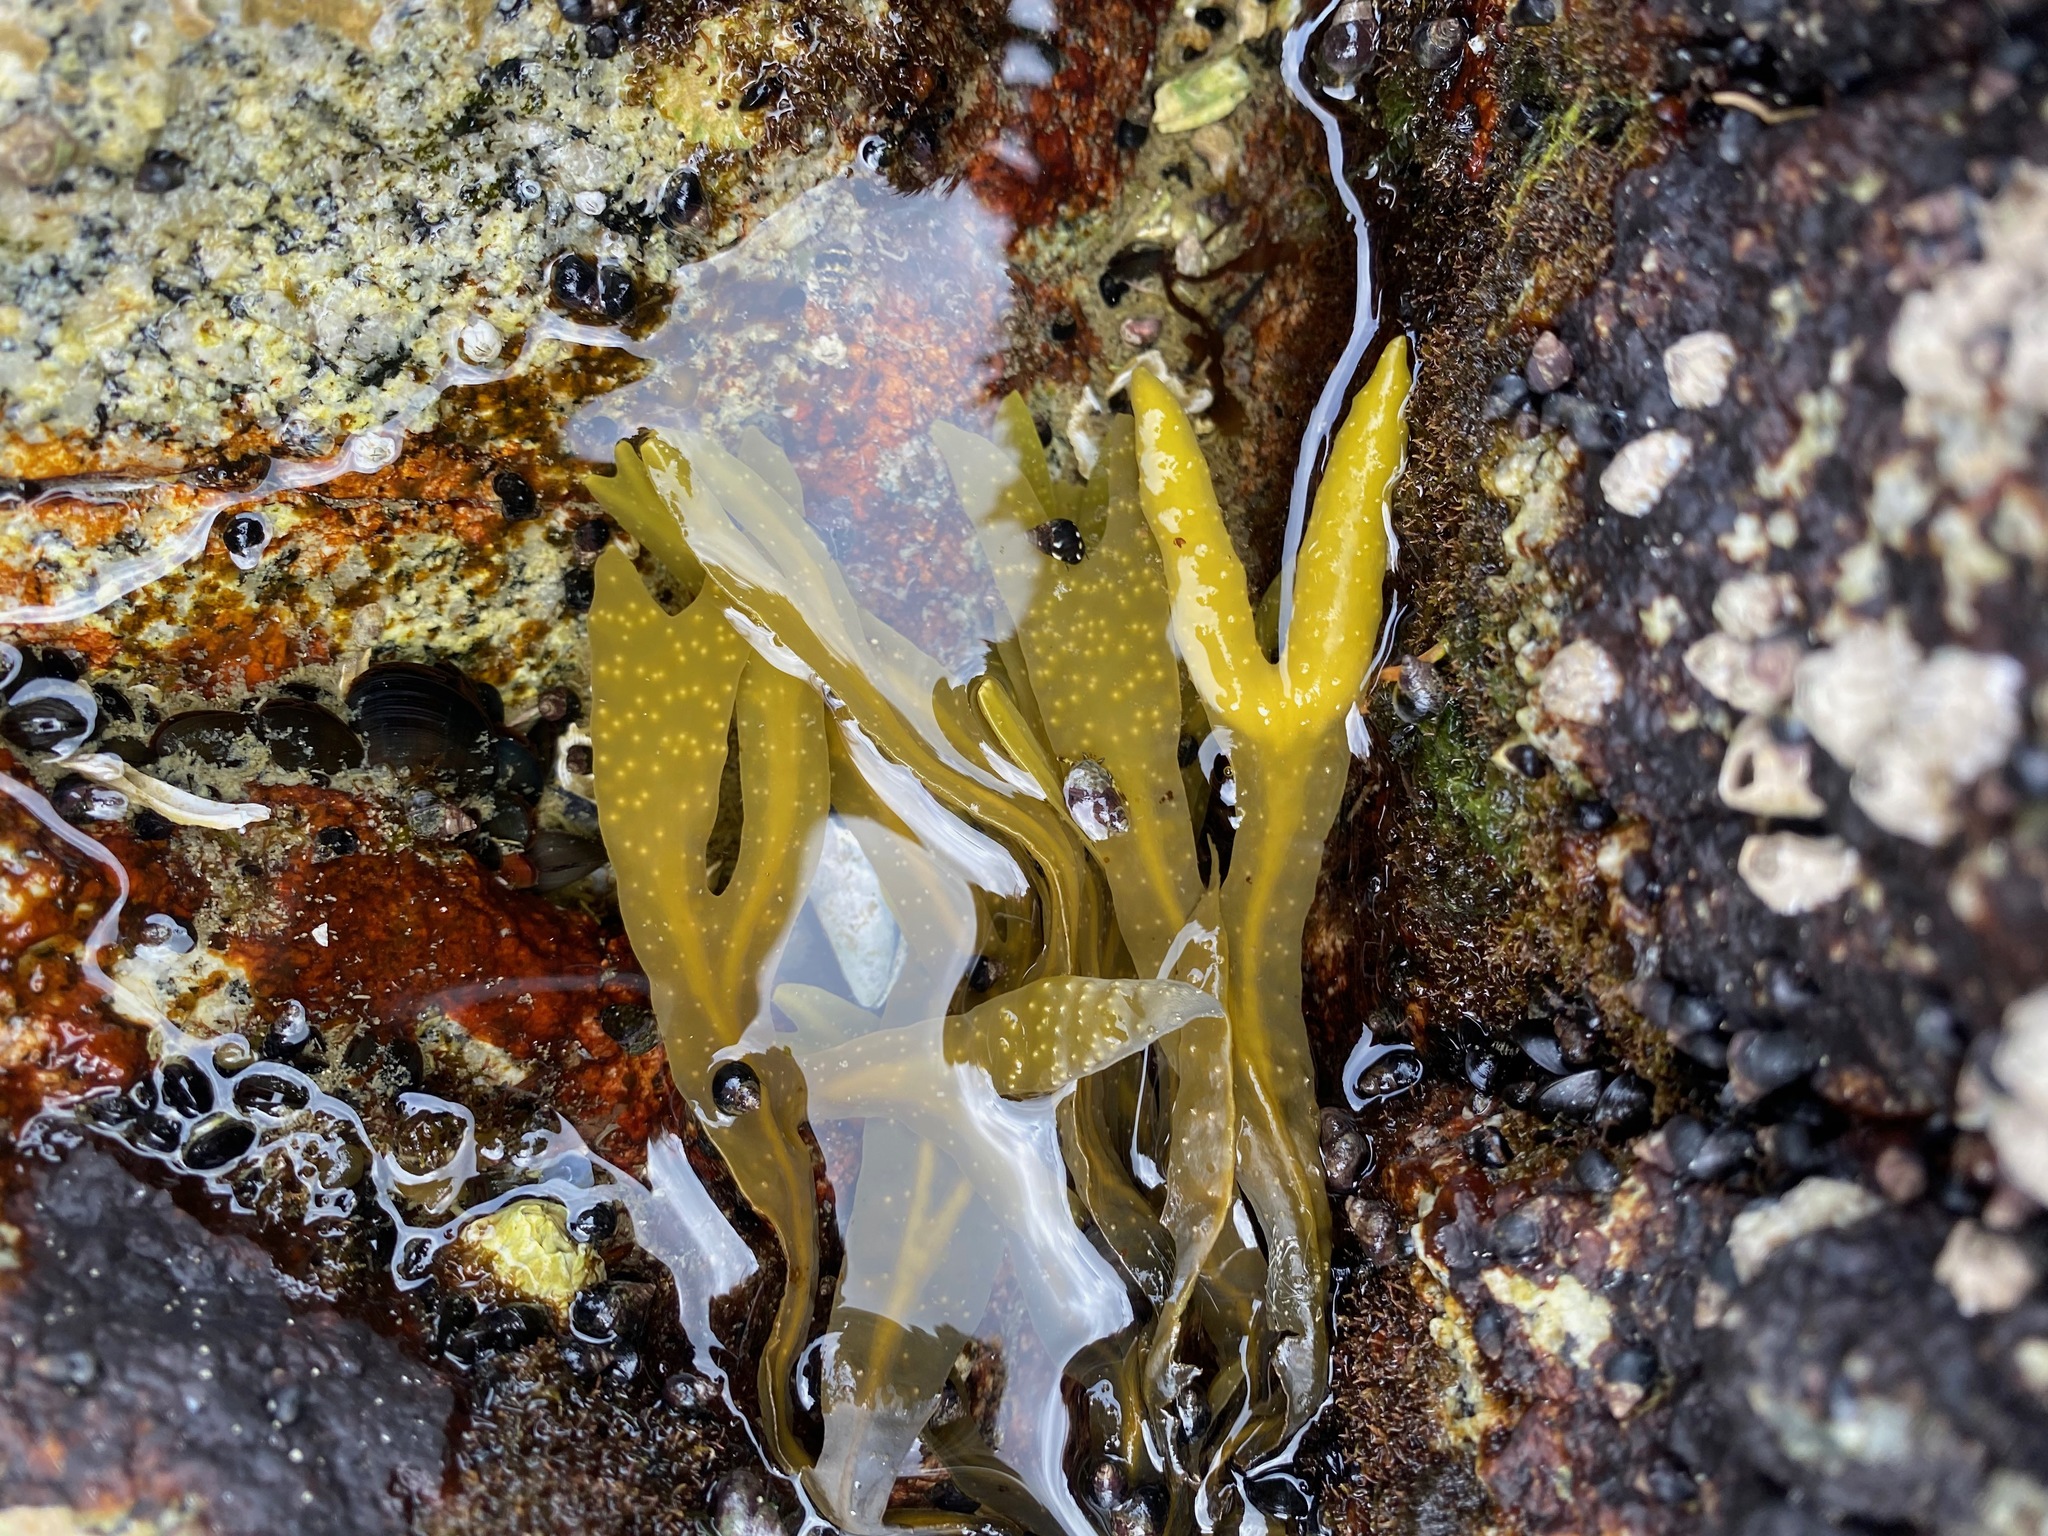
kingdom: Chromista
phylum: Ochrophyta
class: Phaeophyceae
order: Fucales
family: Fucaceae
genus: Fucus
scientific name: Fucus distichus
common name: Rockweed
